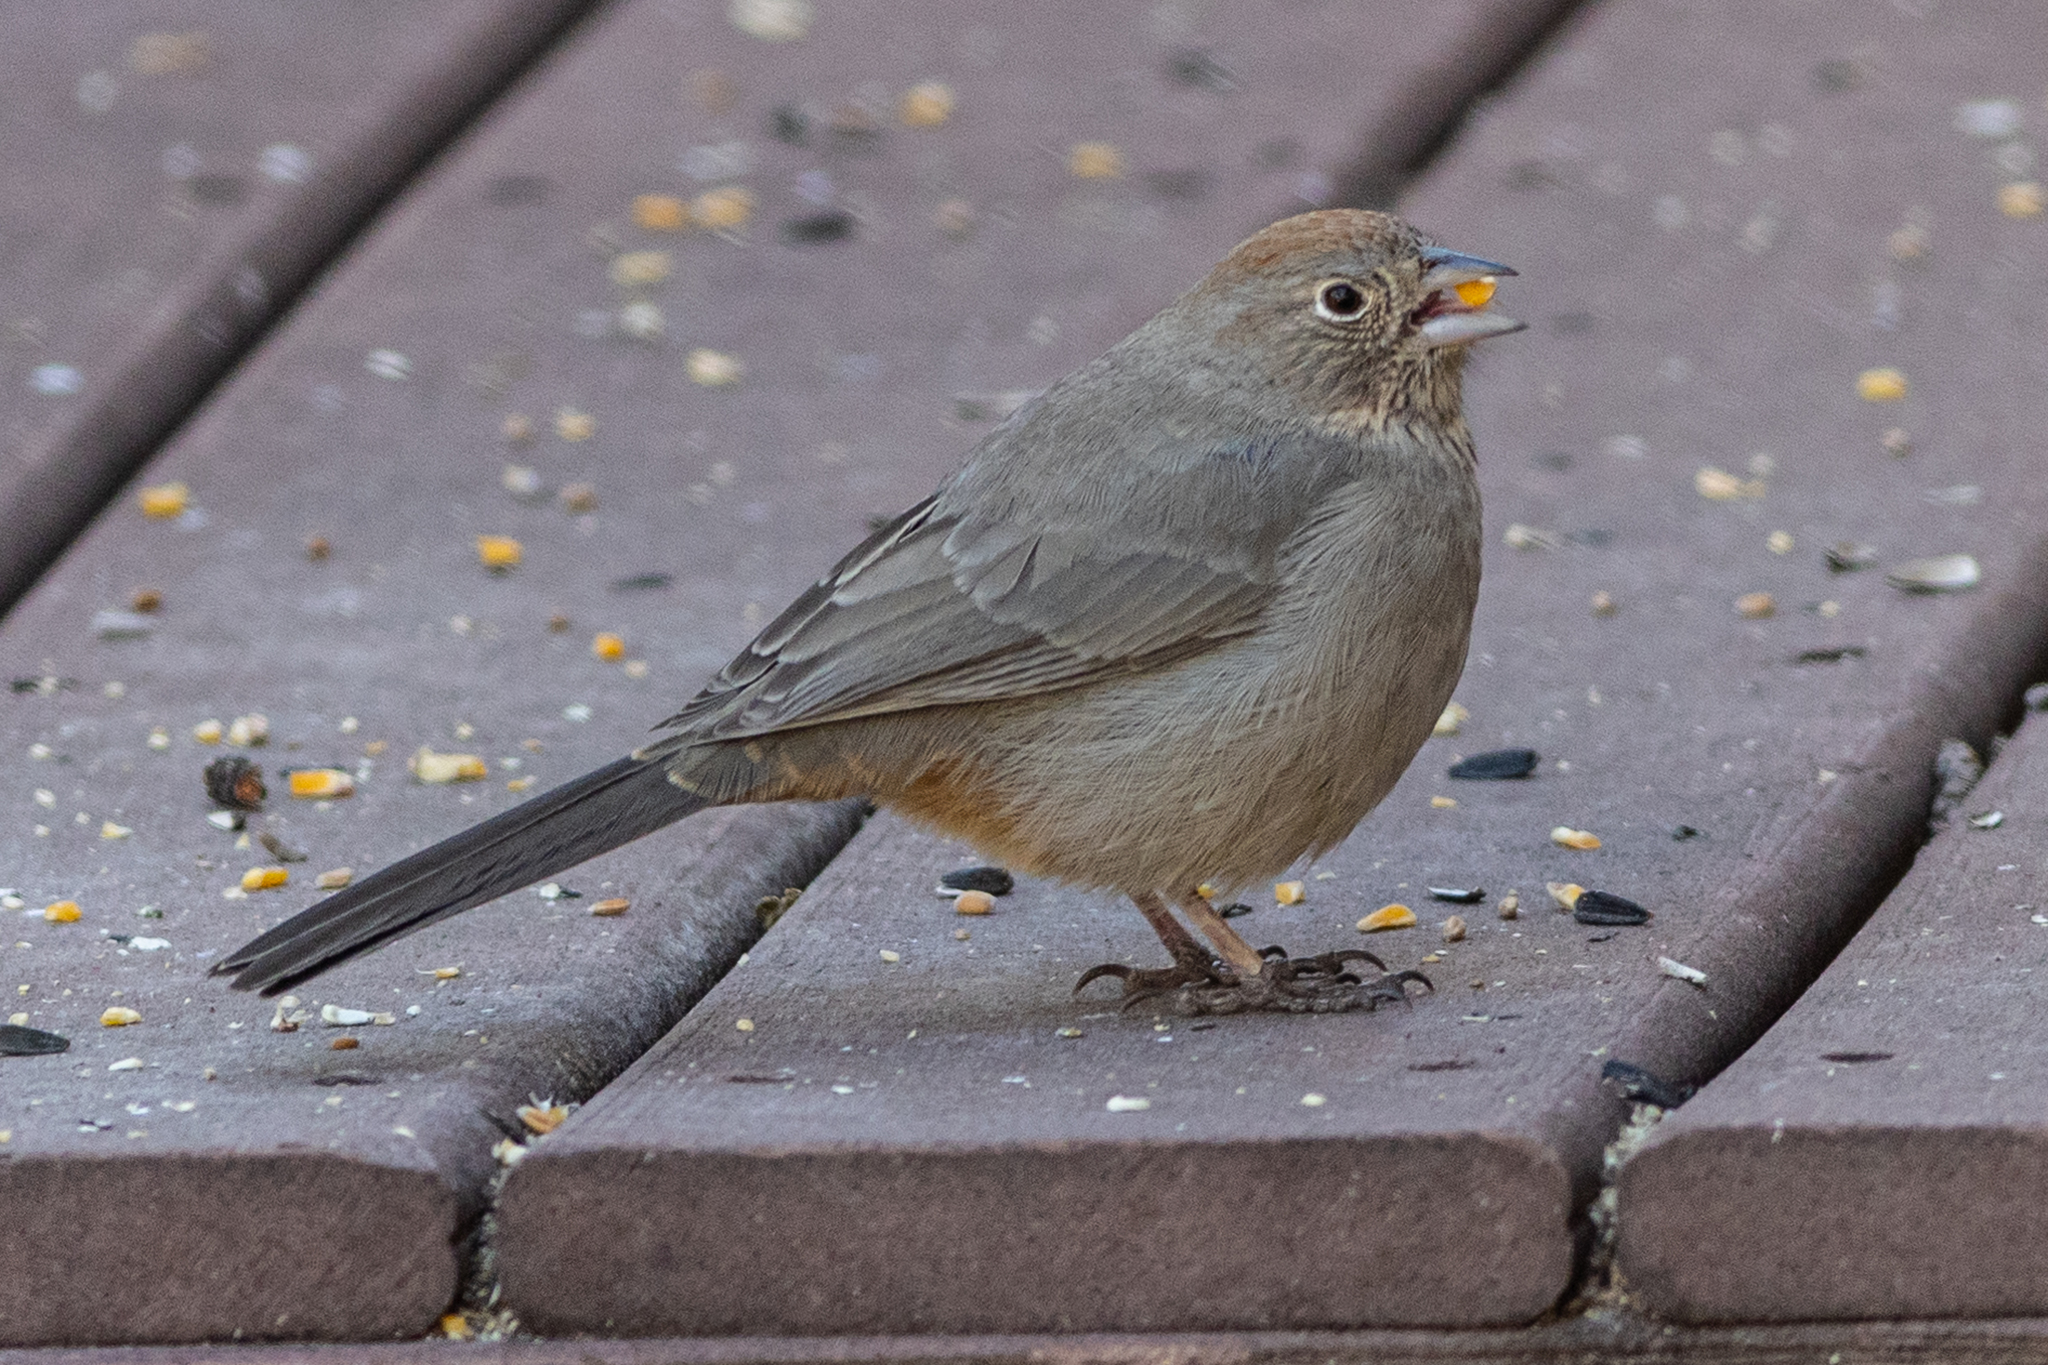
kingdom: Animalia
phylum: Chordata
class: Aves
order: Passeriformes
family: Passerellidae
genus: Melozone
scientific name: Melozone fusca
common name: Canyon towhee
